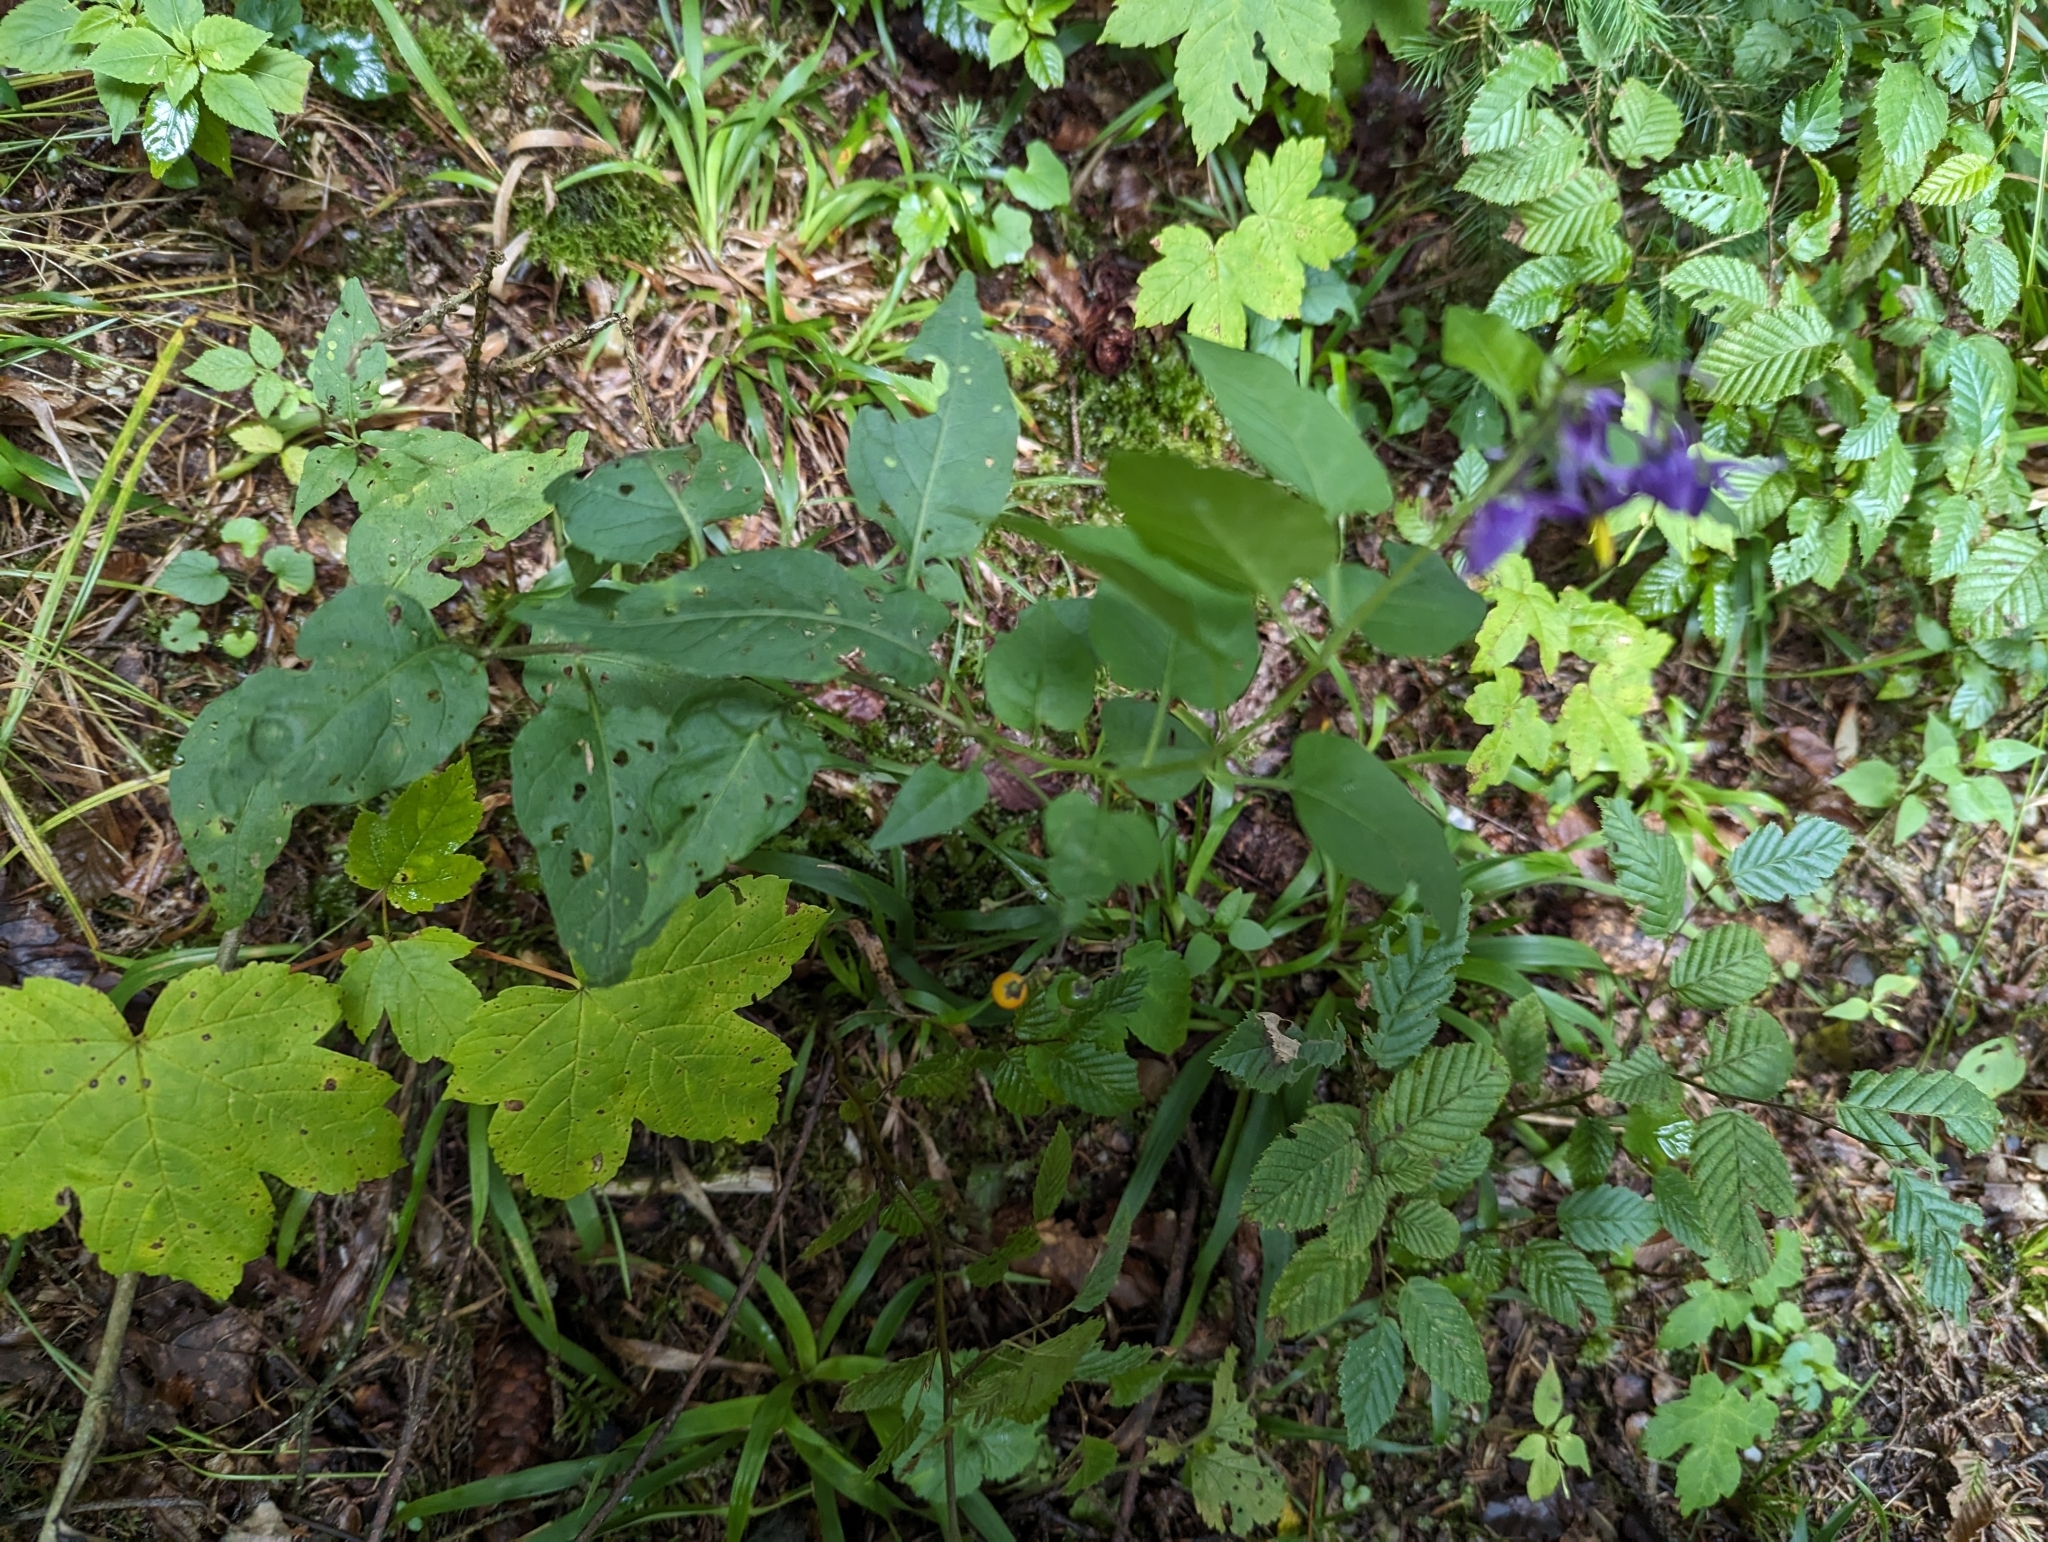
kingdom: Plantae
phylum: Tracheophyta
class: Magnoliopsida
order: Solanales
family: Solanaceae
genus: Solanum
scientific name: Solanum dulcamara
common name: Climbing nightshade
